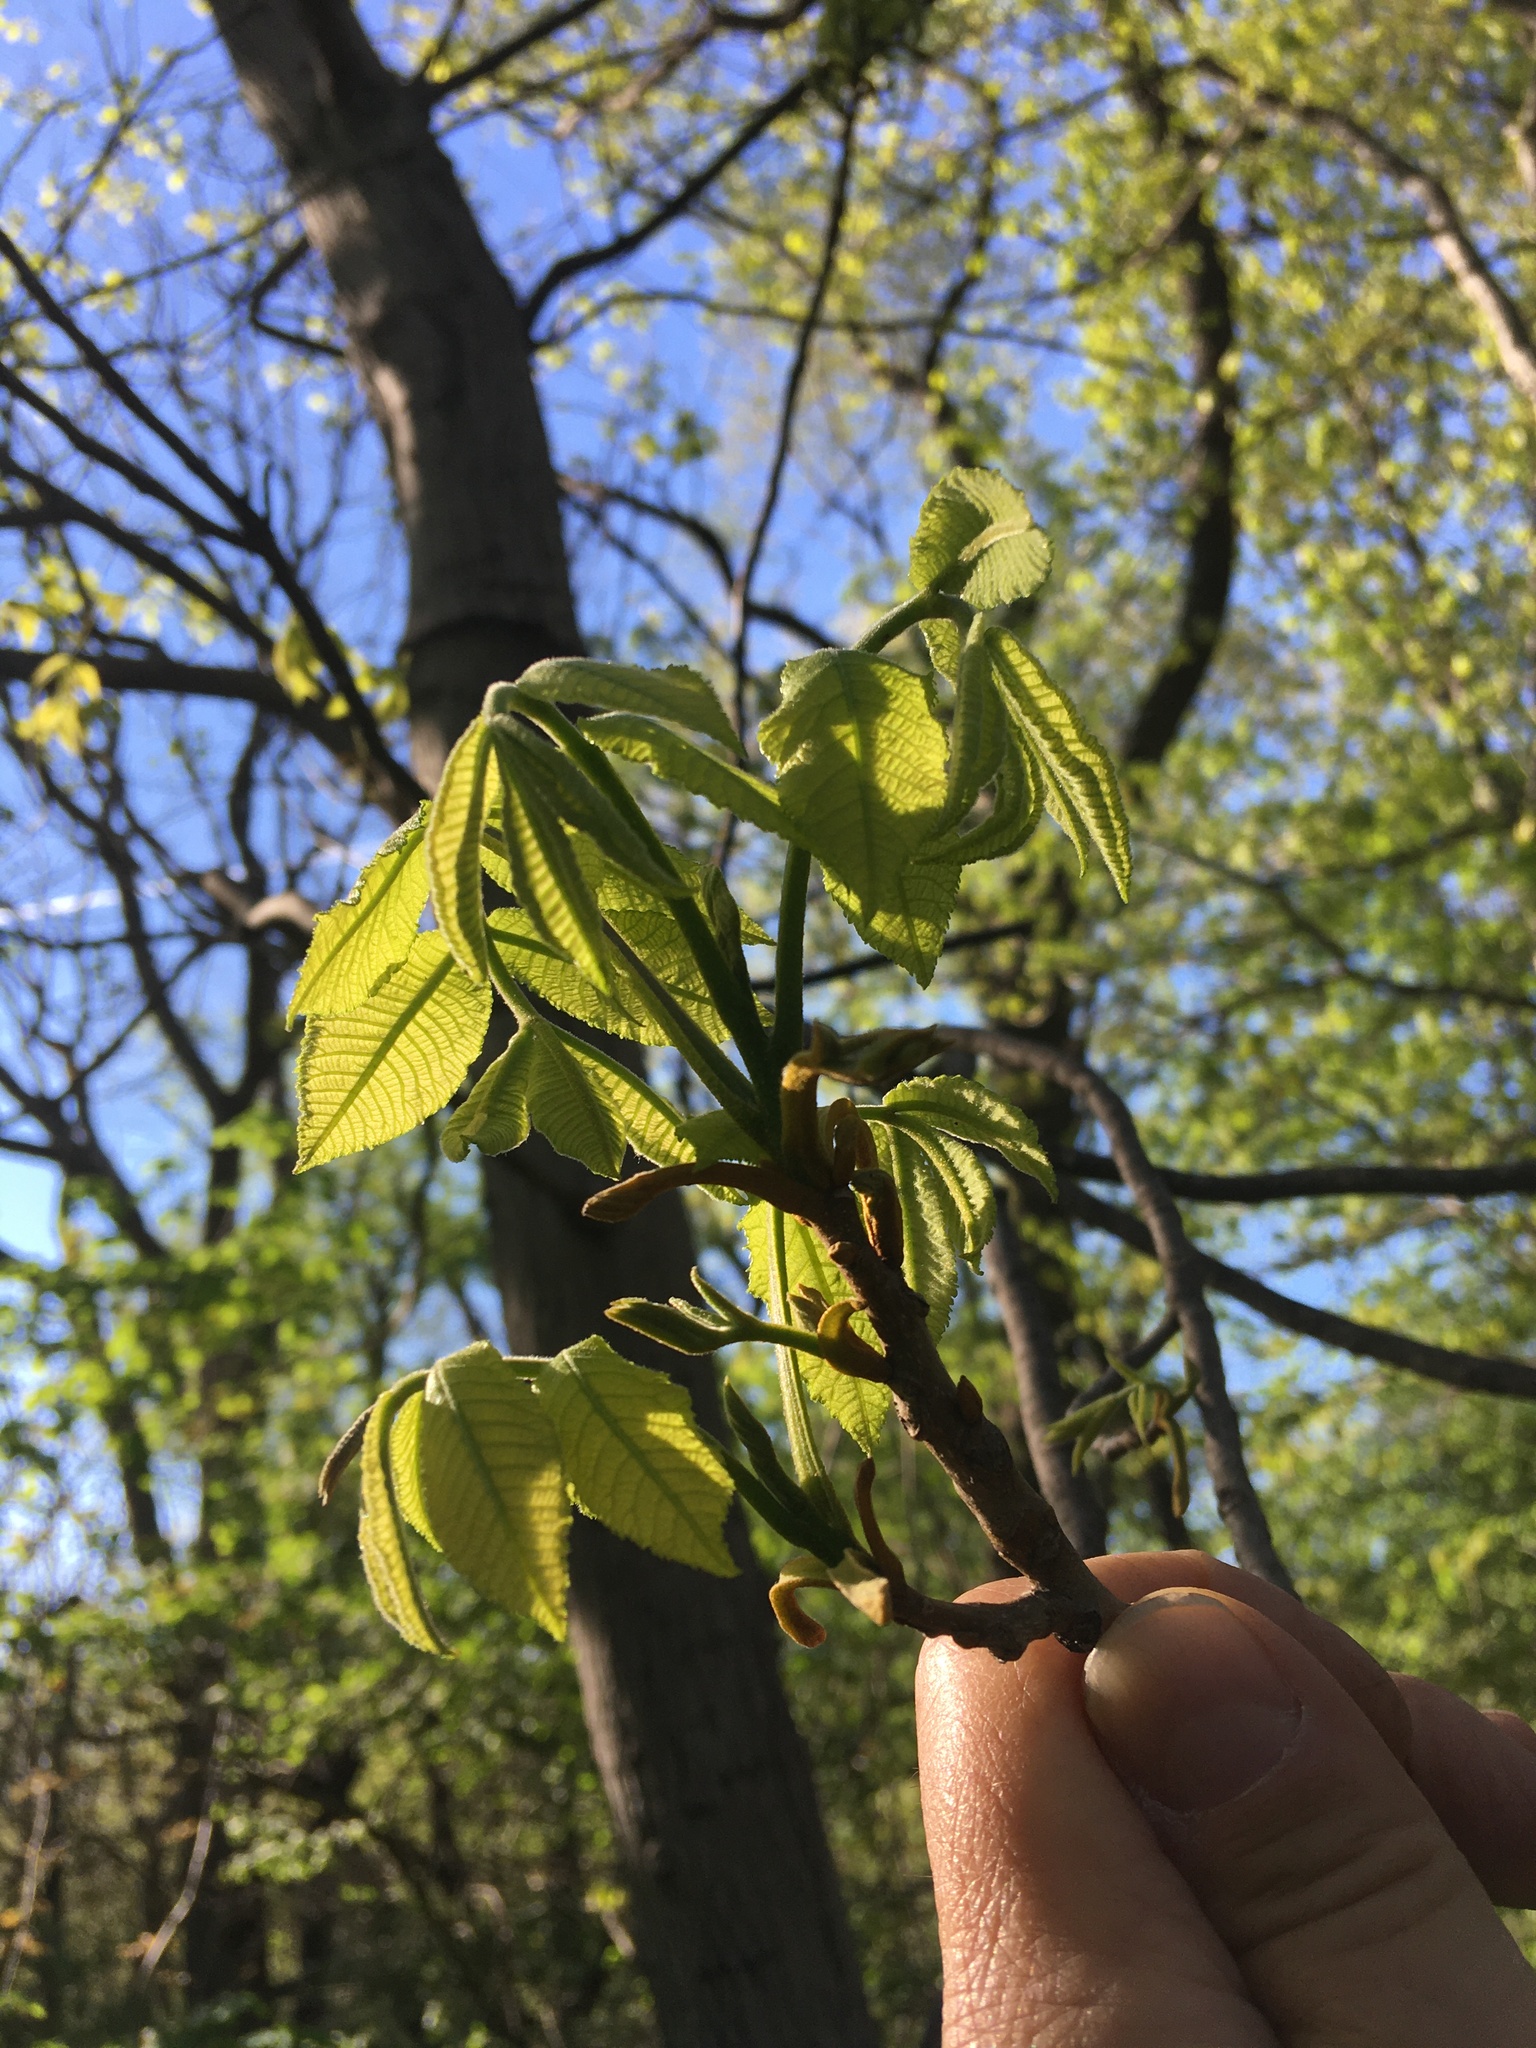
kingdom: Plantae
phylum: Tracheophyta
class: Magnoliopsida
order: Fagales
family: Juglandaceae
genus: Carya
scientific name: Carya alba
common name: Mockernut hickory
